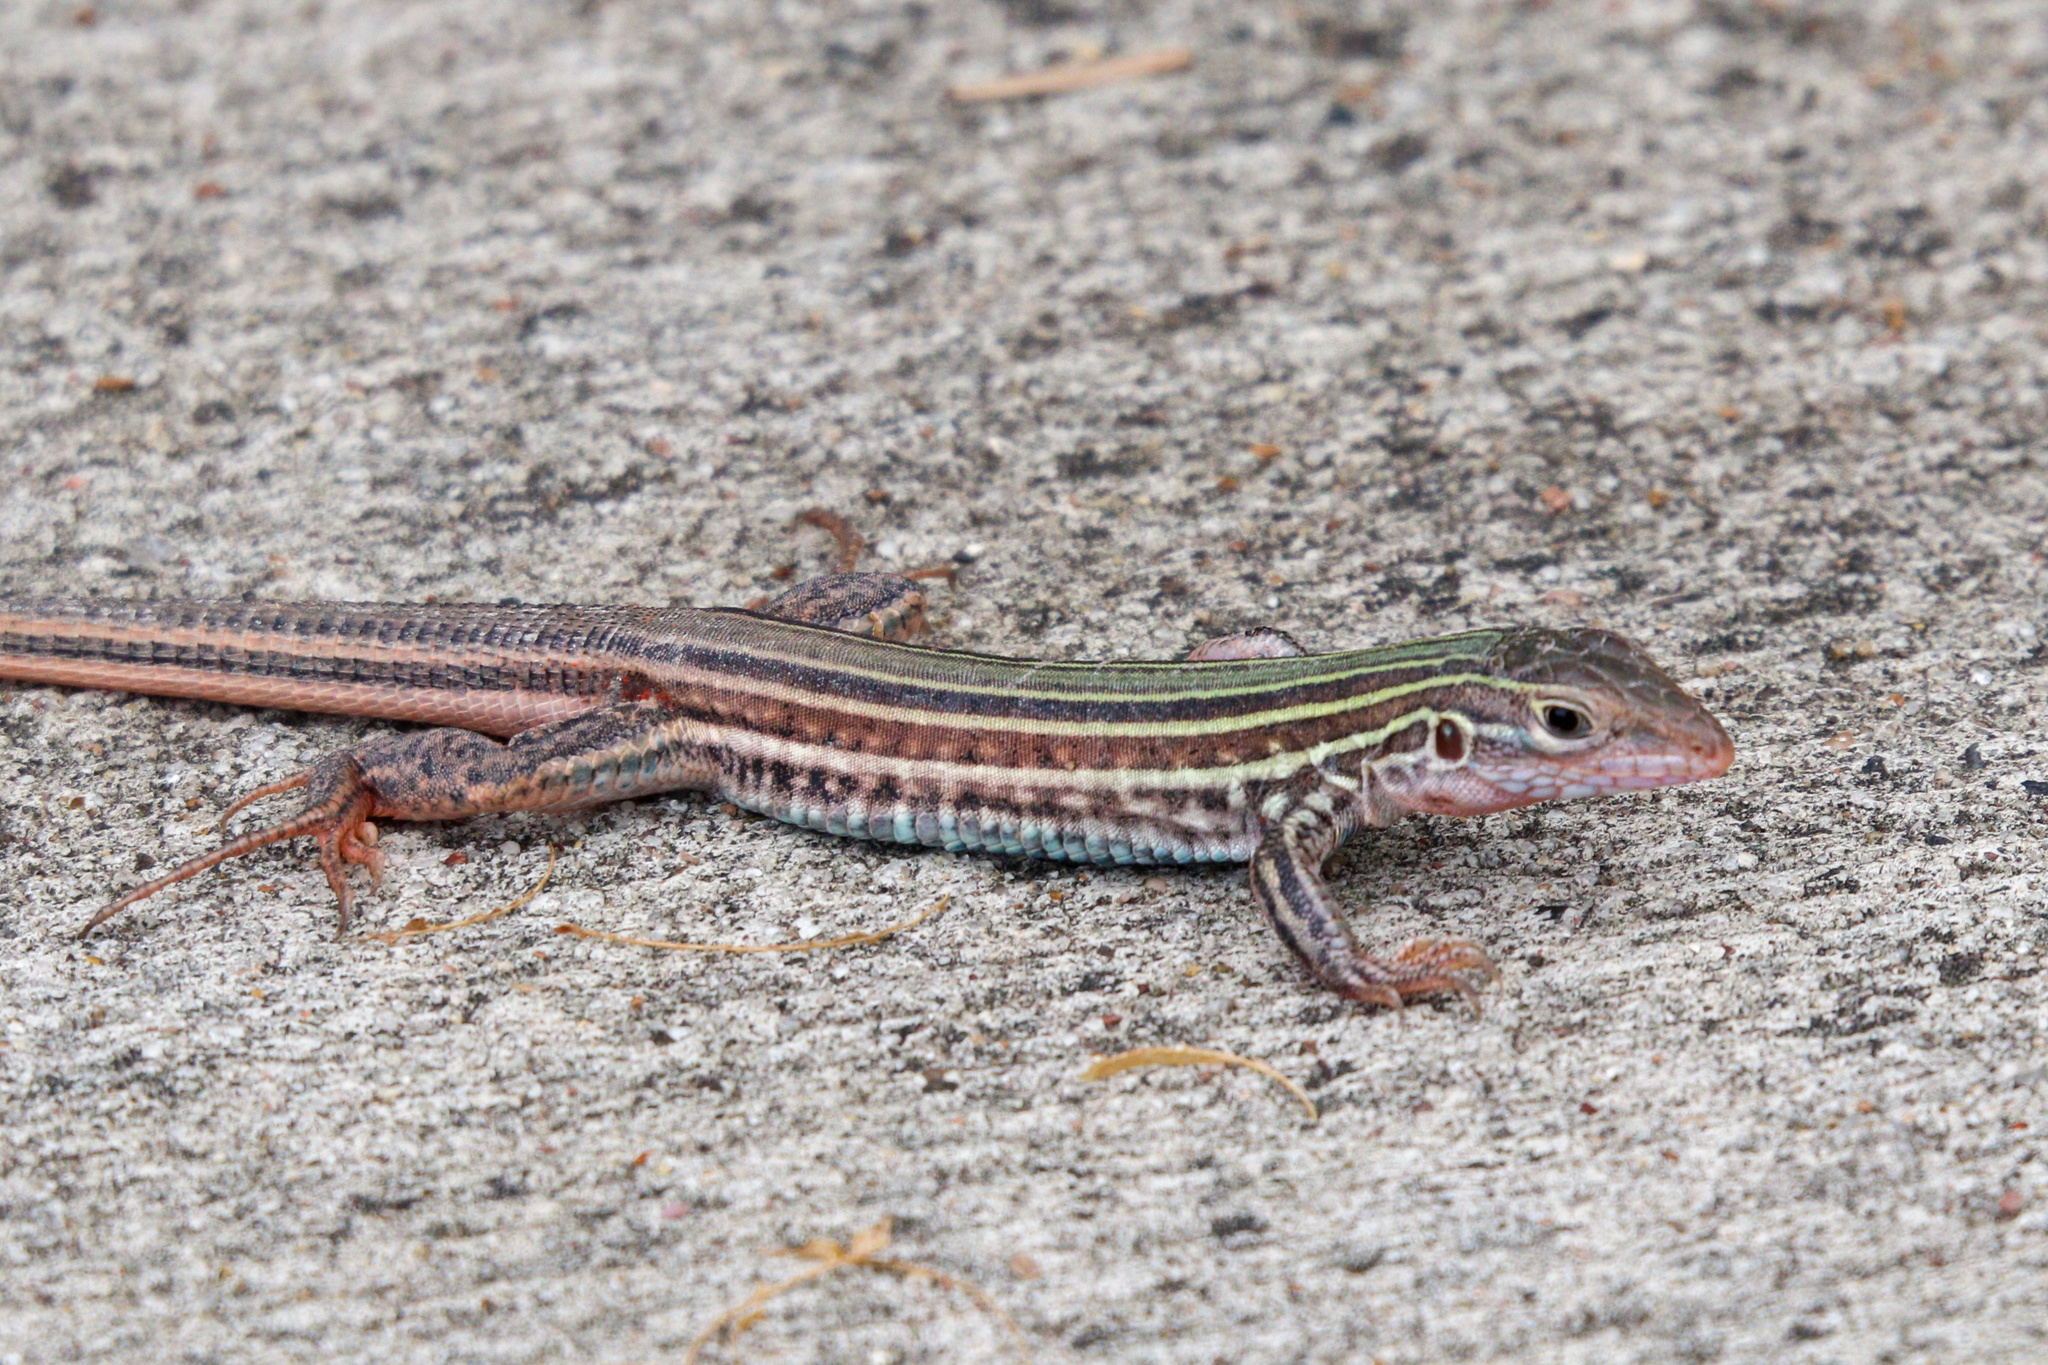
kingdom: Animalia
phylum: Chordata
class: Squamata
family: Teiidae
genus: Aspidoscelis
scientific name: Aspidoscelis gularis
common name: Eastern spotted whiptail
